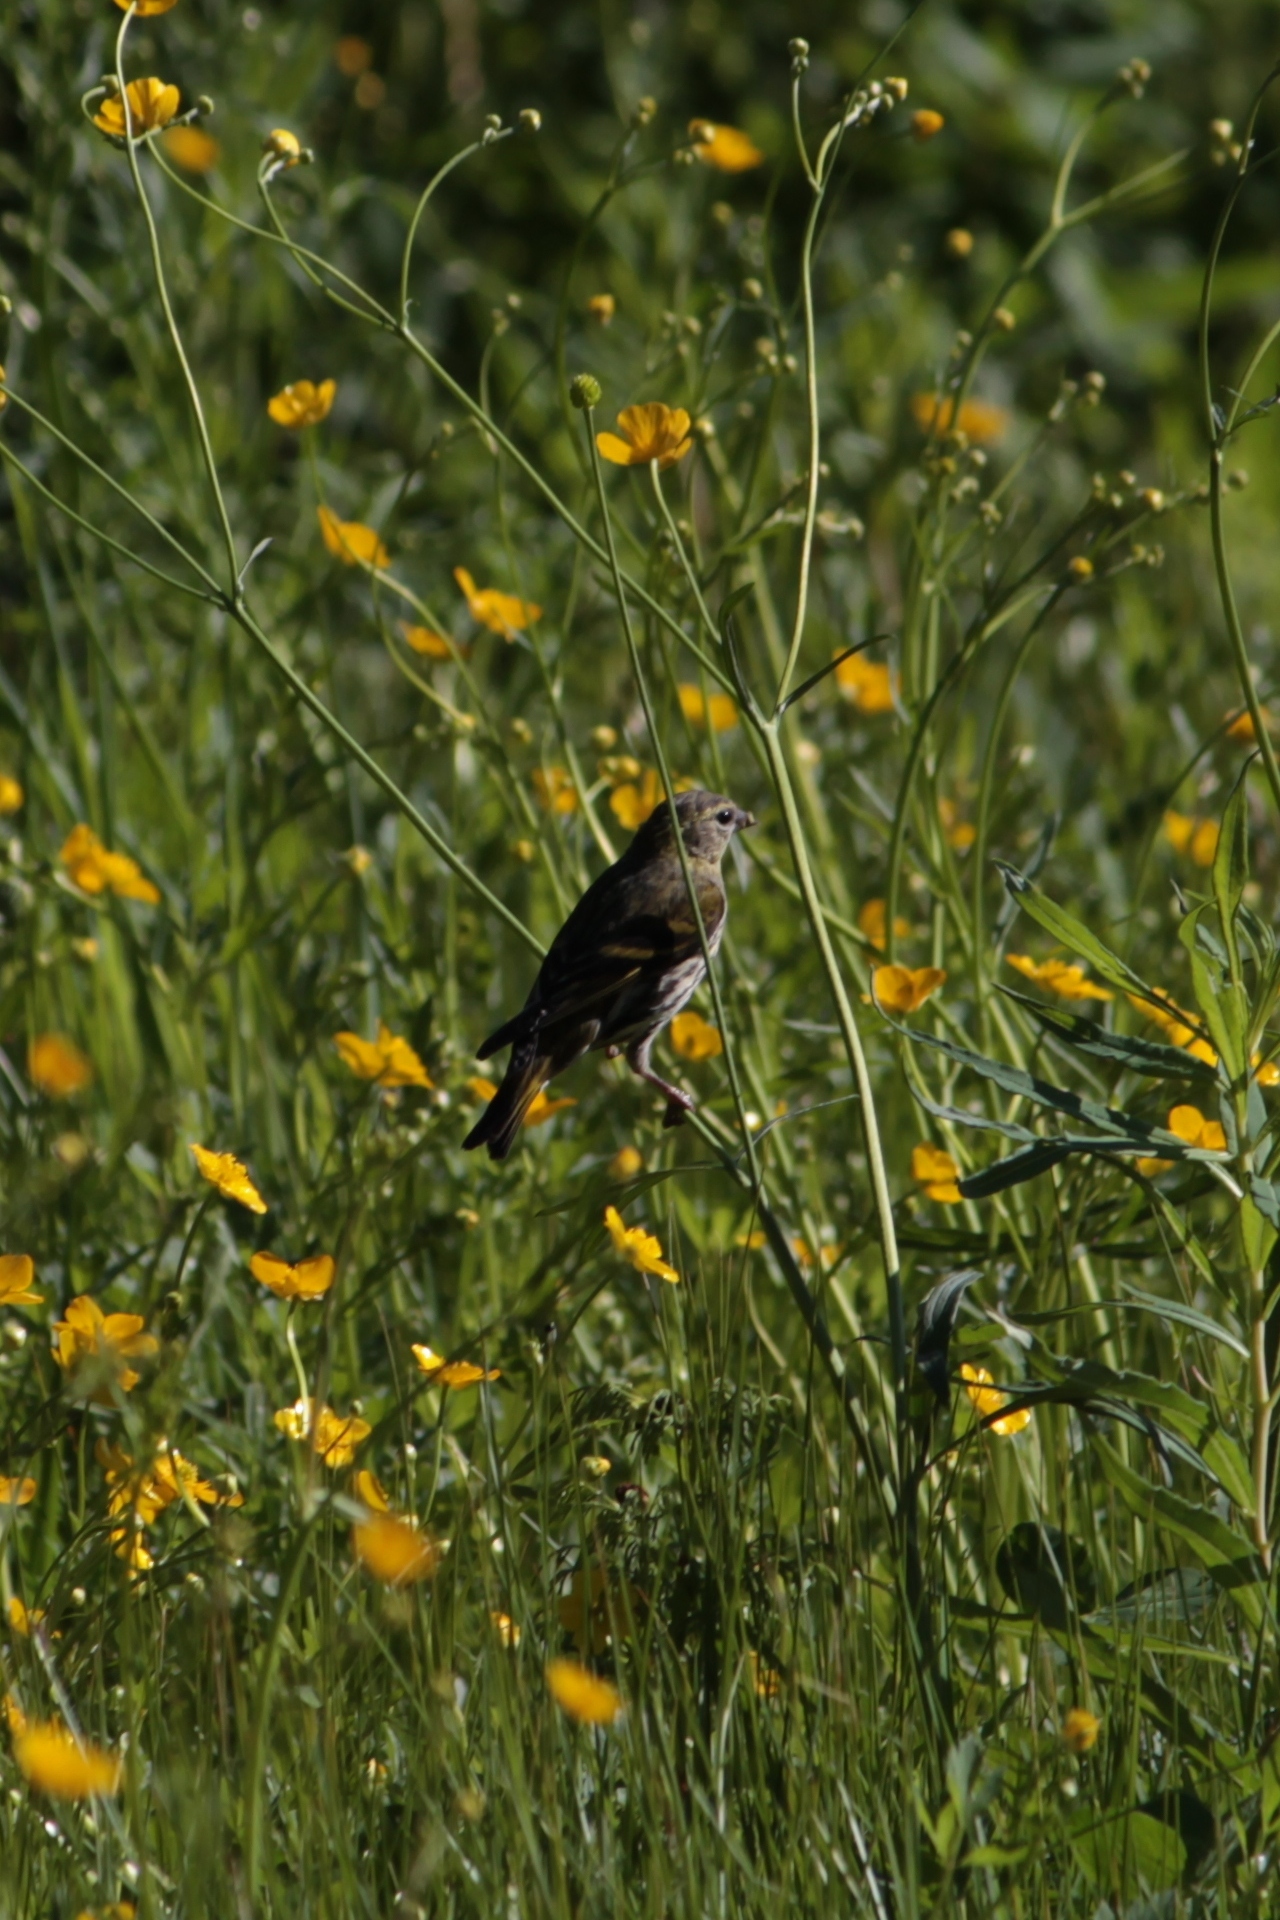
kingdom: Animalia
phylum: Chordata
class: Aves
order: Passeriformes
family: Fringillidae
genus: Spinus
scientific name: Spinus spinus
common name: Eurasian siskin
